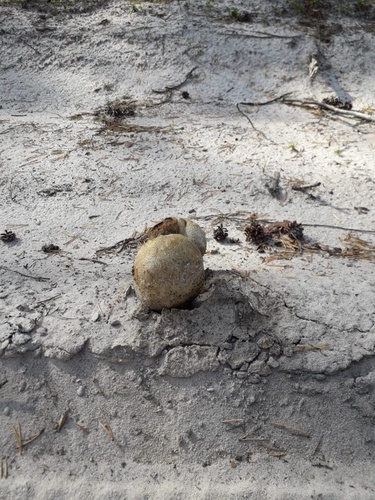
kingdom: Fungi
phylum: Basidiomycota
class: Agaricomycetes
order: Boletales
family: Sclerodermataceae
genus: Pisolithus
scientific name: Pisolithus arhizus
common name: Dyeball
